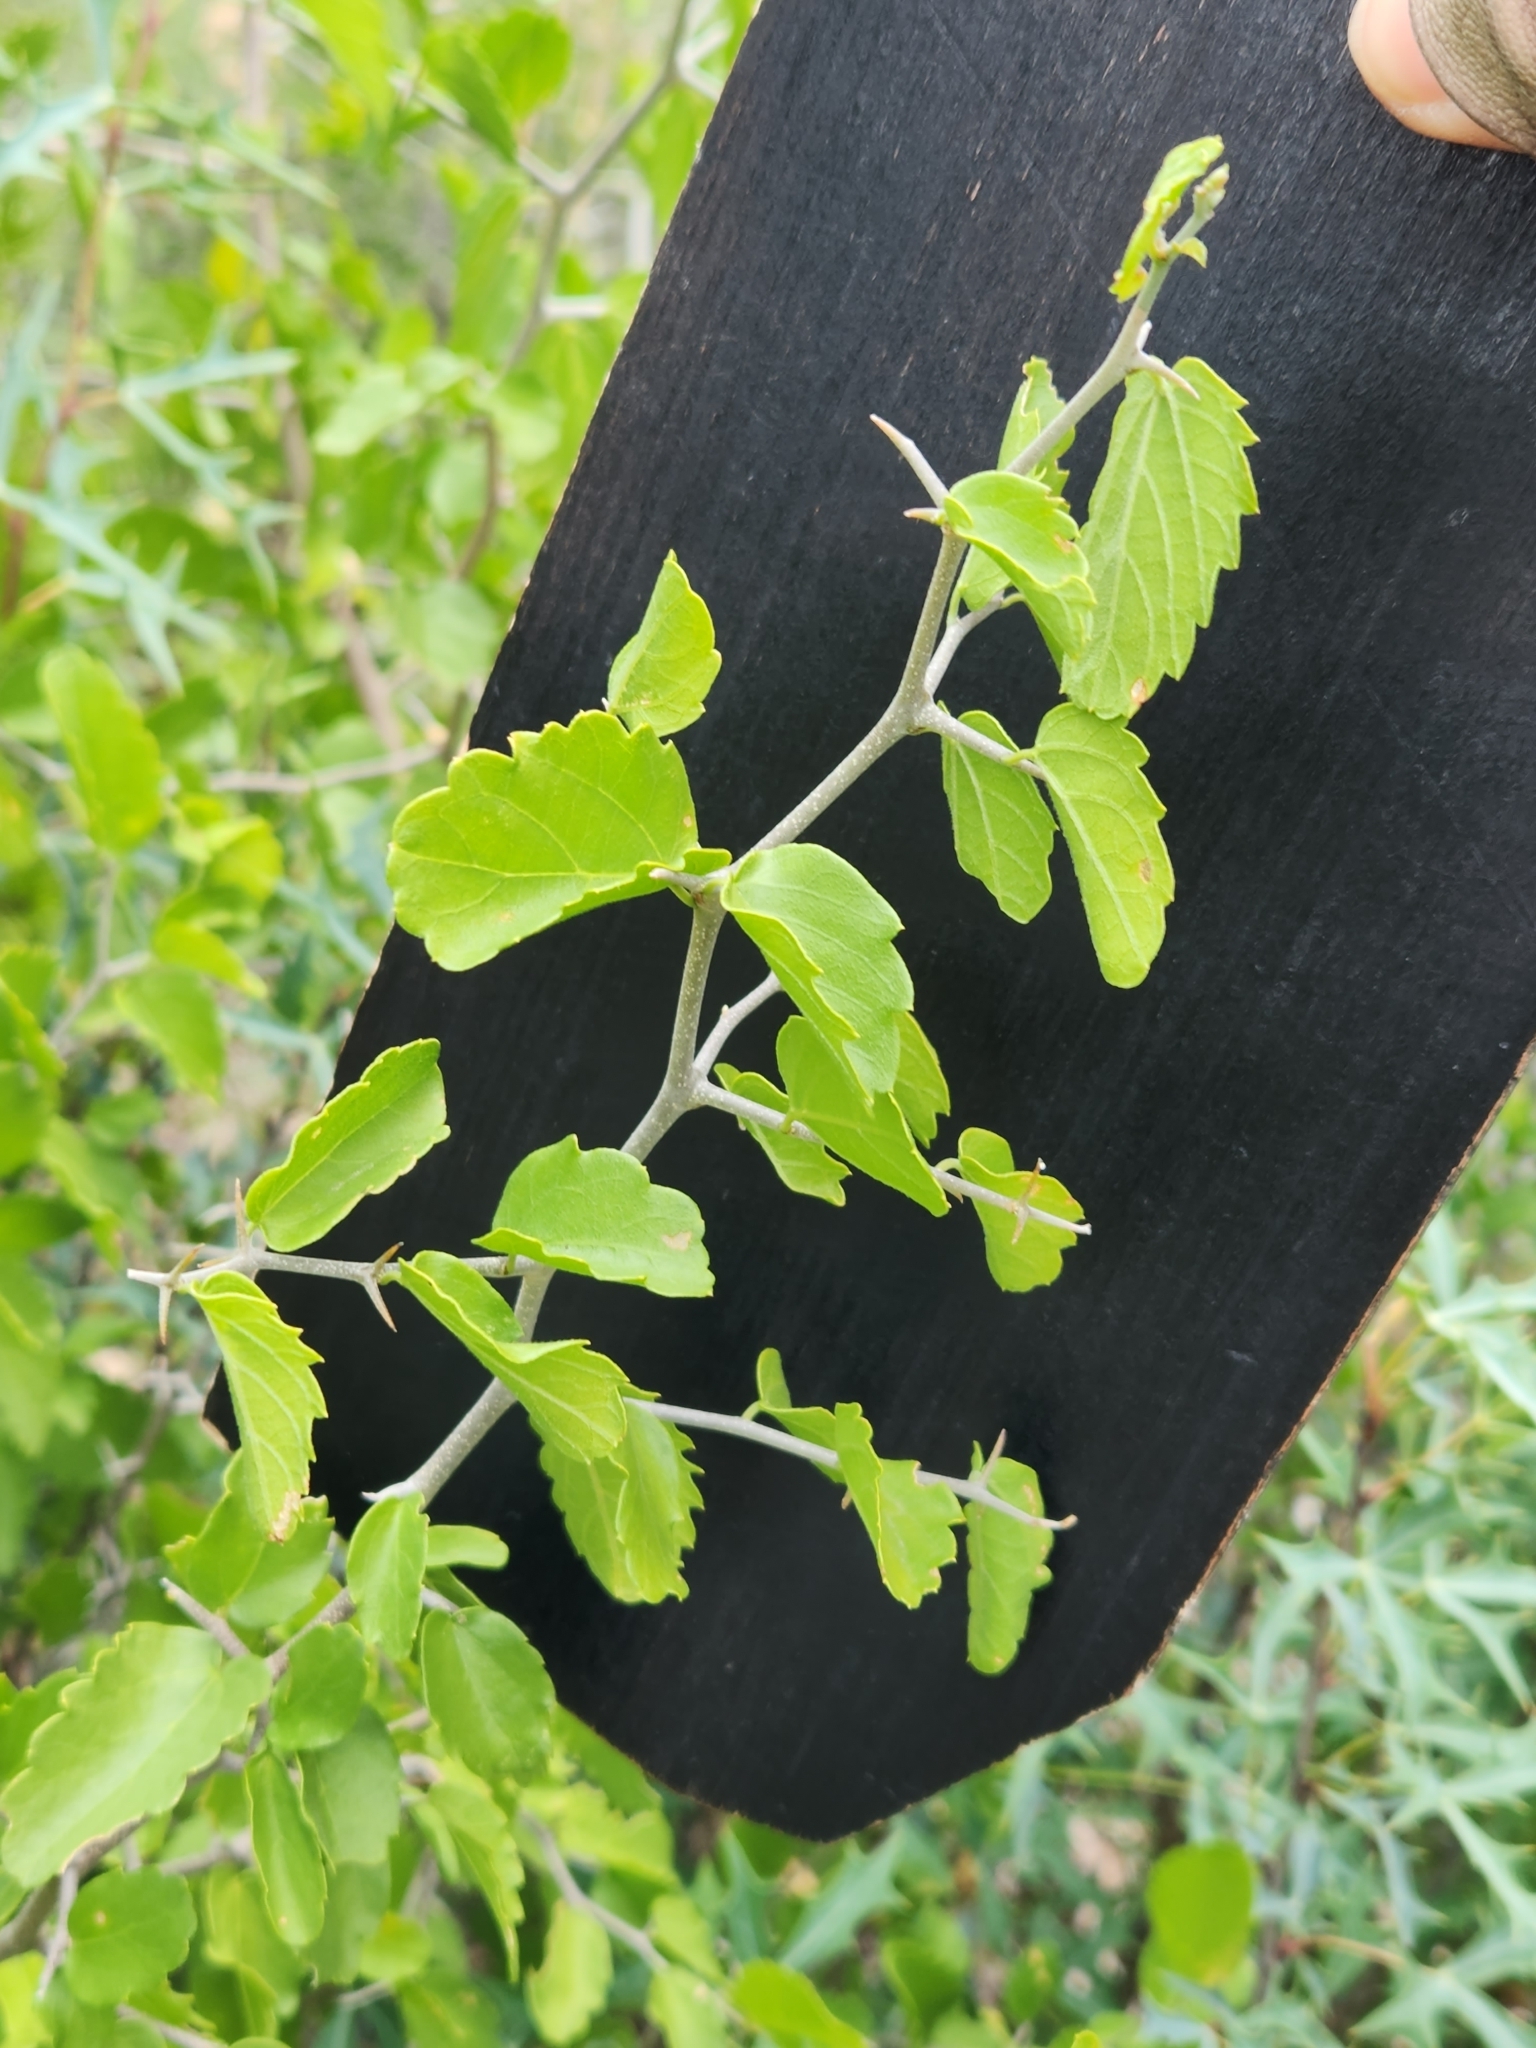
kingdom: Plantae
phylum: Tracheophyta
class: Magnoliopsida
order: Rosales
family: Cannabaceae
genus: Celtis
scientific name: Celtis pallida
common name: Desert hackberry
